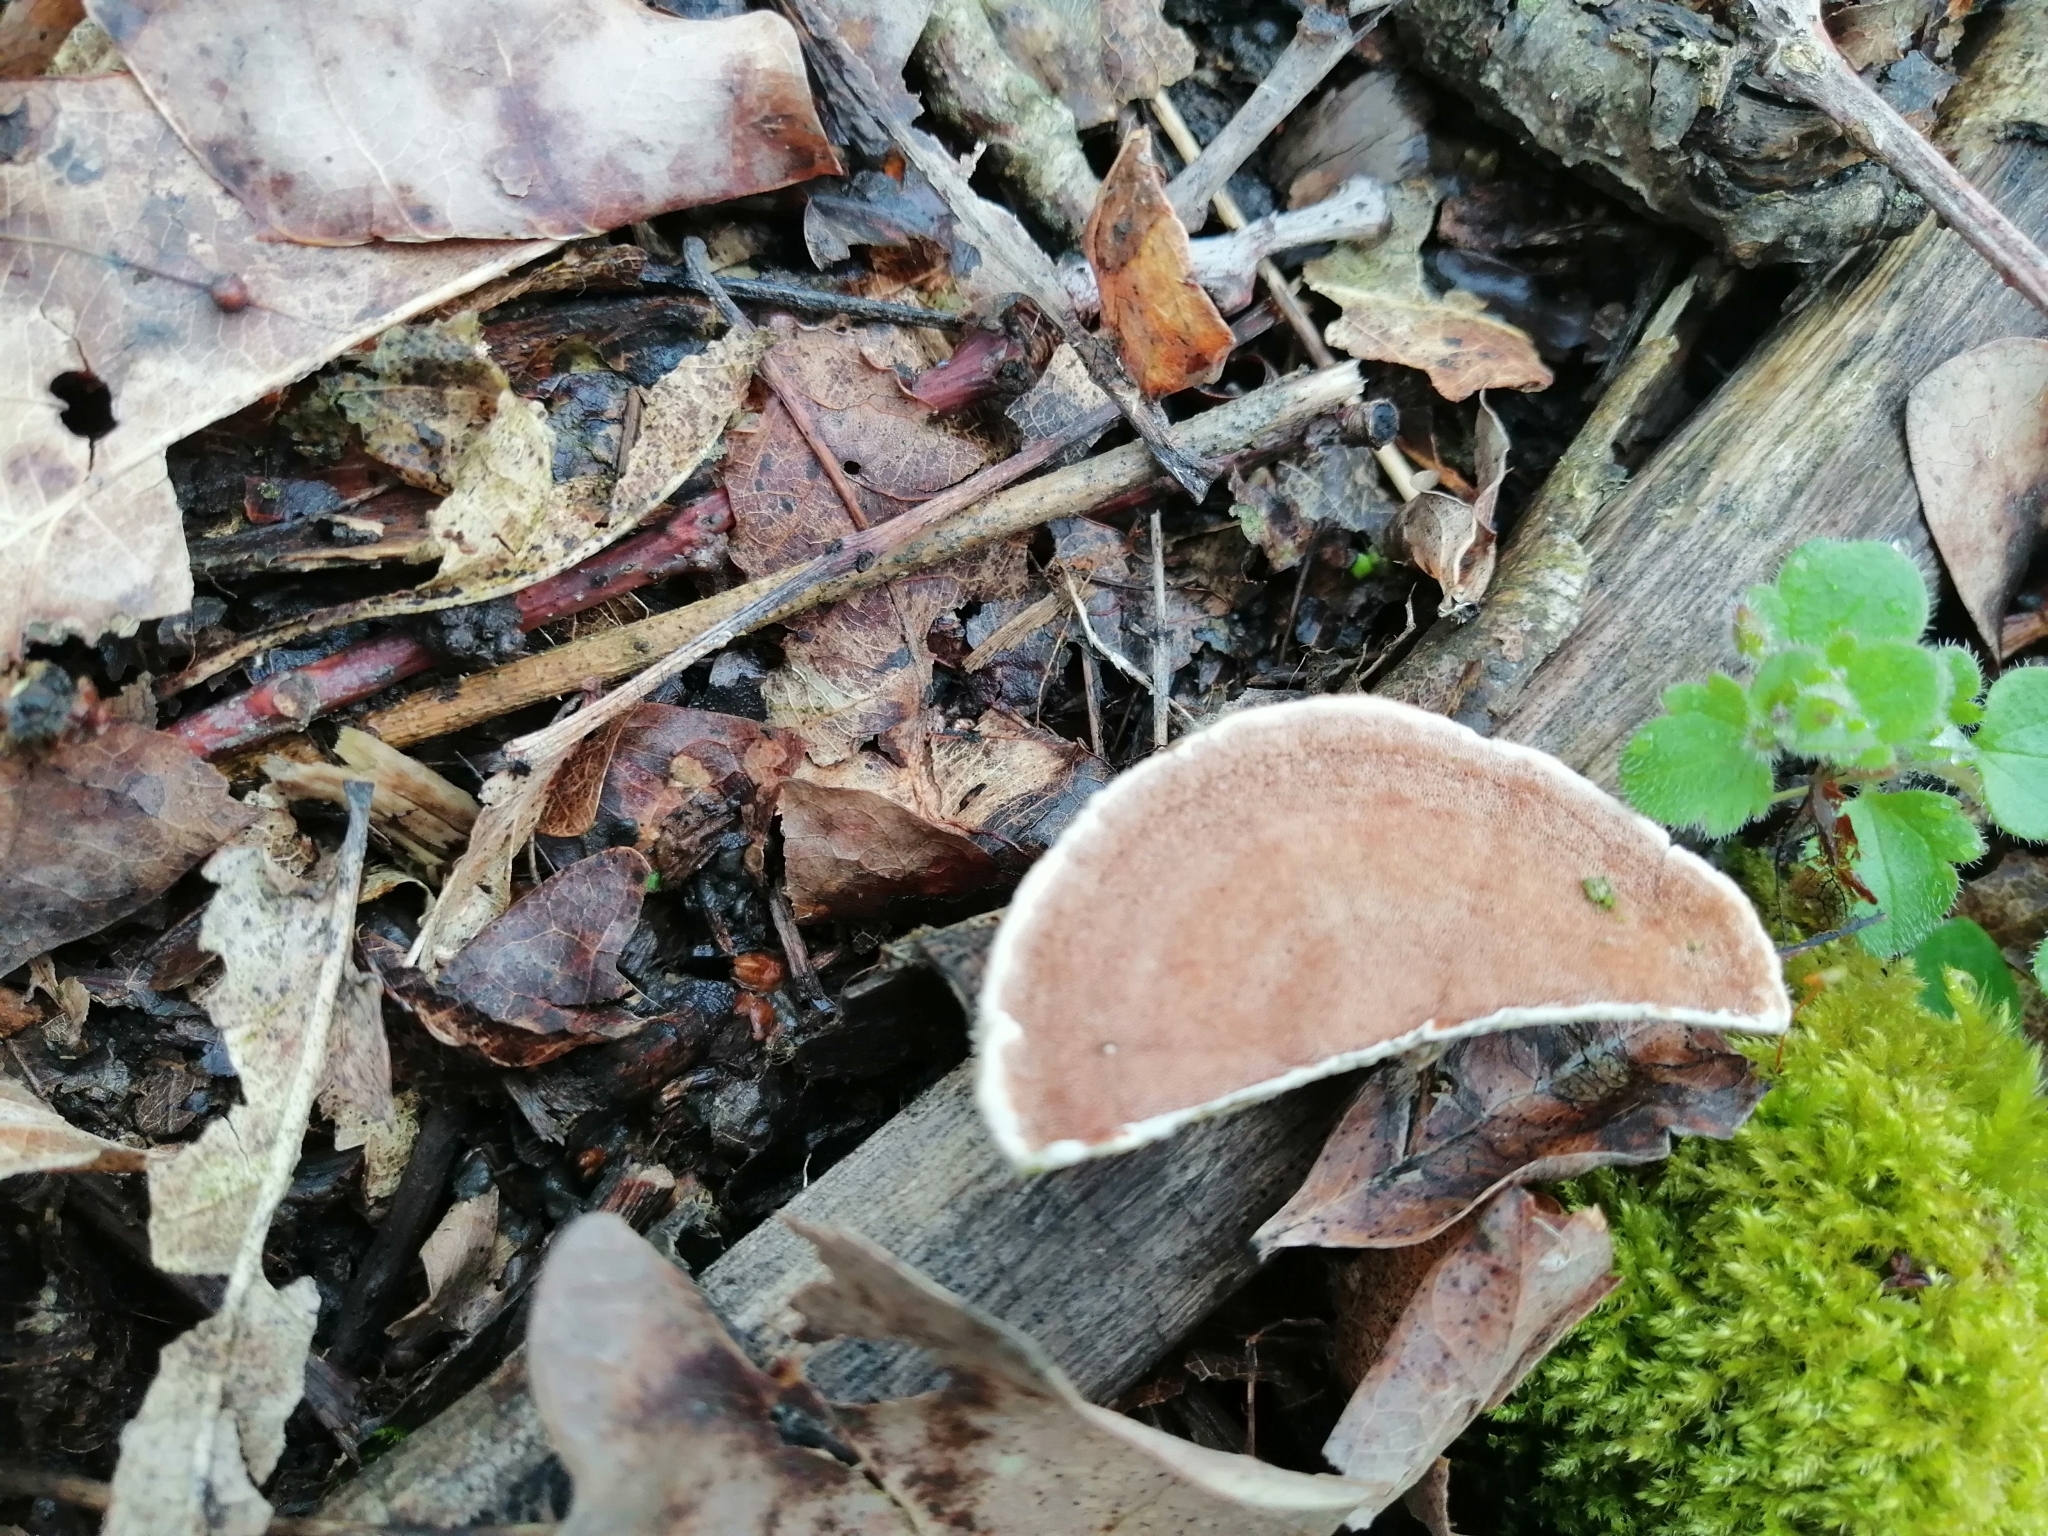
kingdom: Fungi
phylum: Basidiomycota
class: Agaricomycetes
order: Polyporales
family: Irpicaceae
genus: Vitreoporus
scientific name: Vitreoporus dichrous
